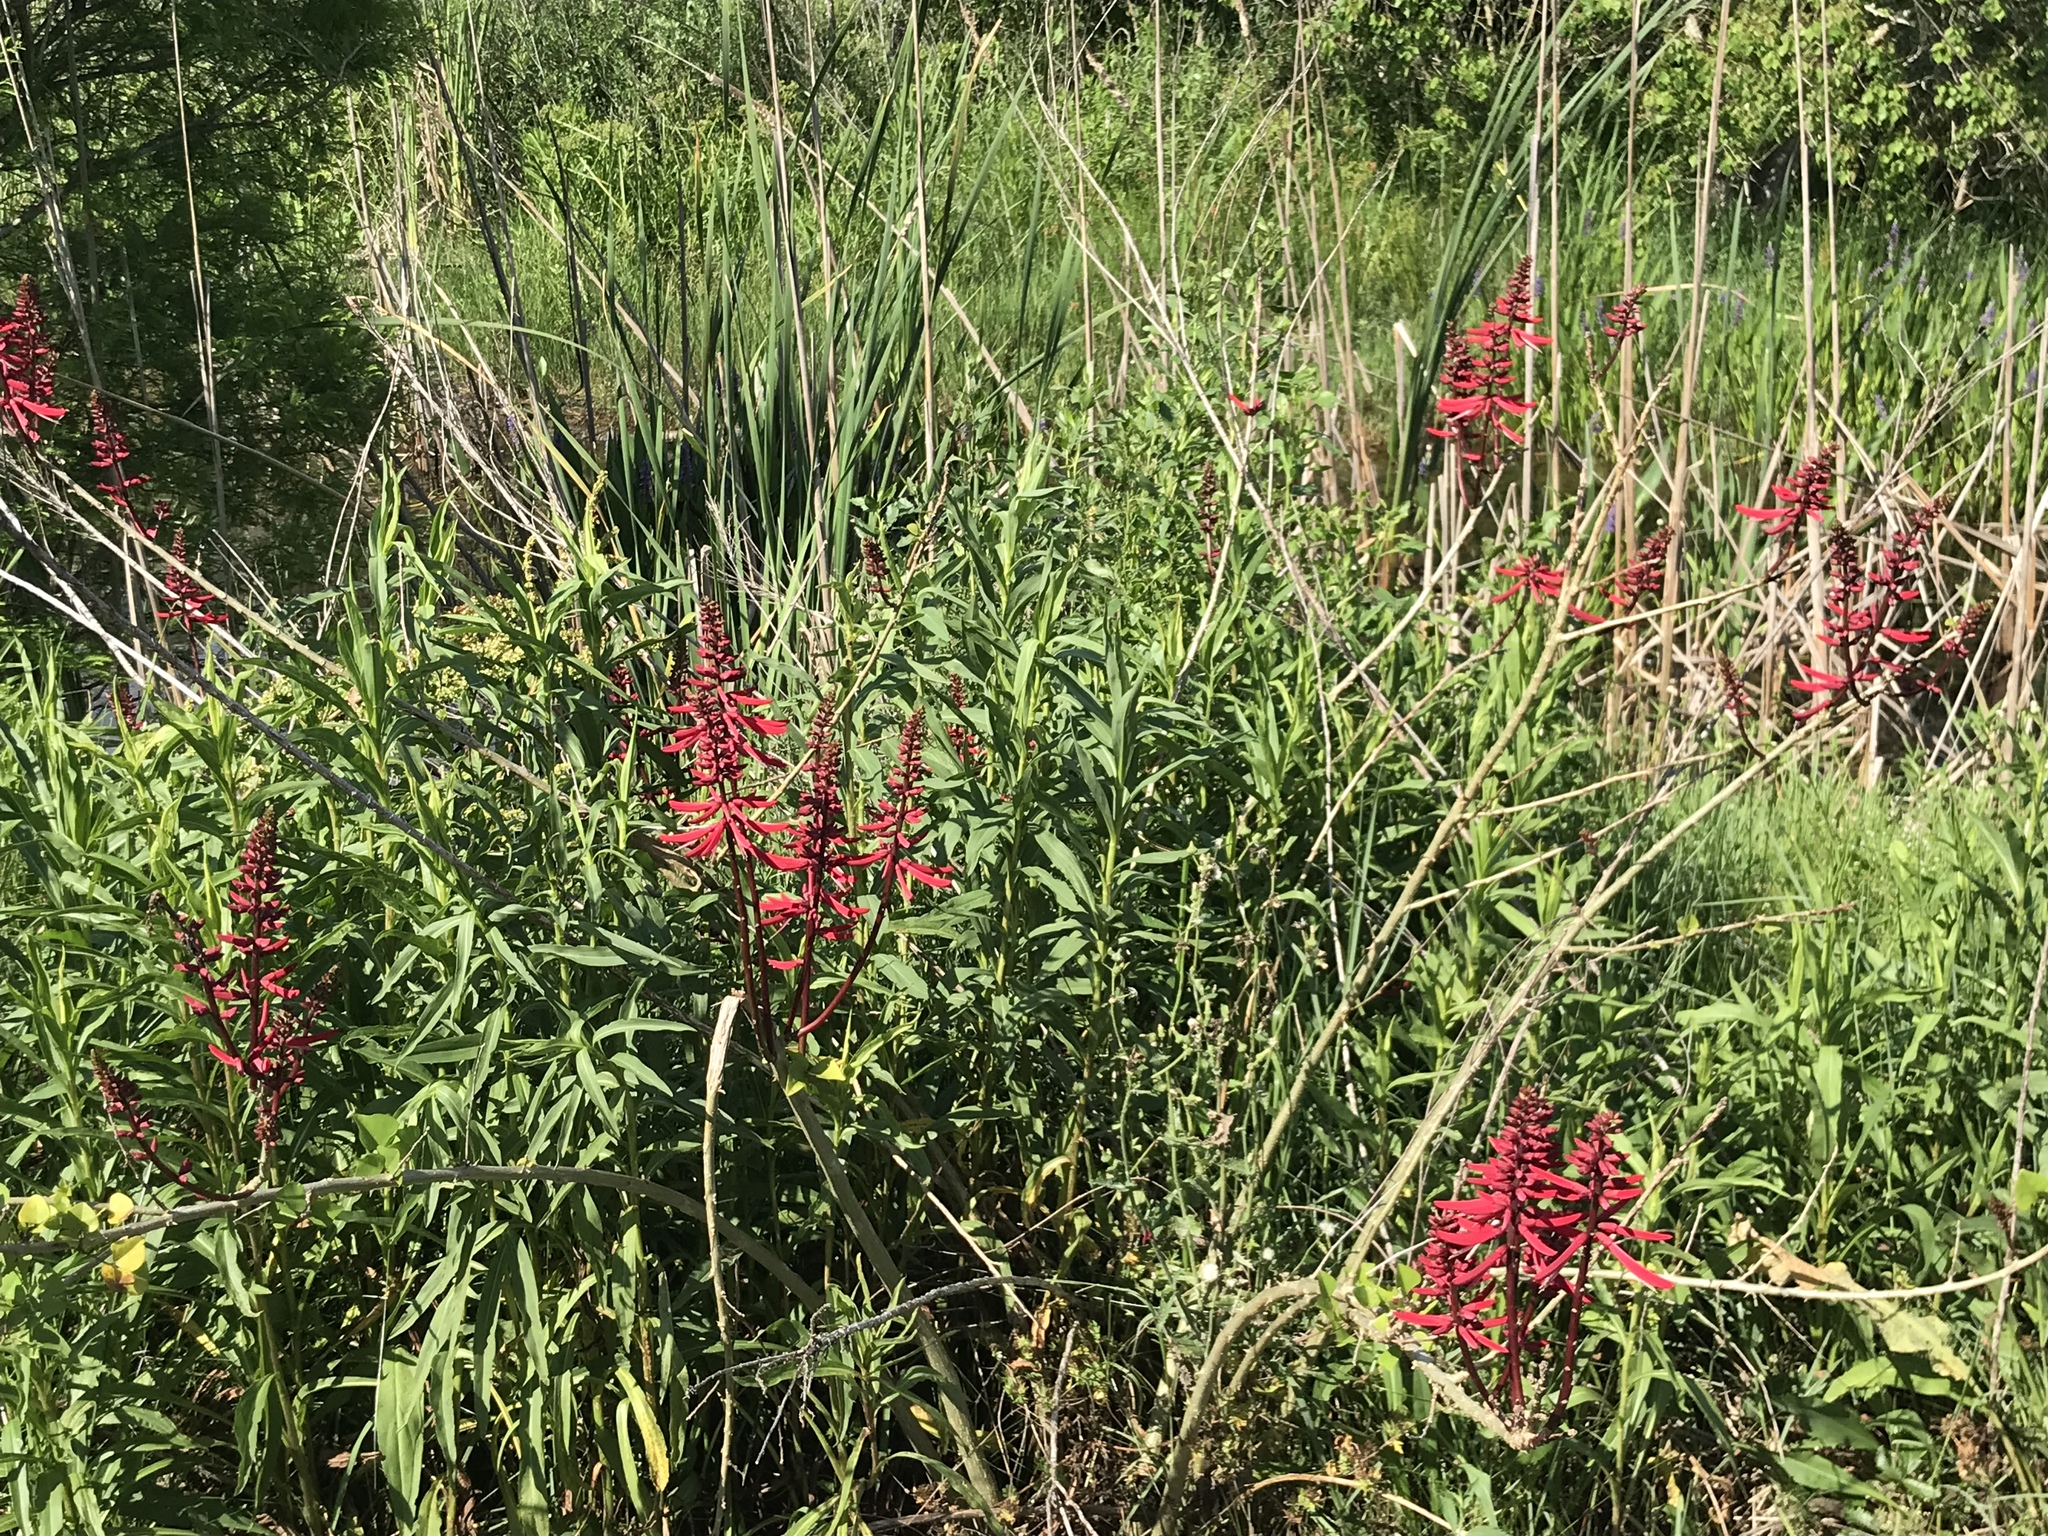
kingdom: Plantae
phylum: Tracheophyta
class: Magnoliopsida
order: Fabales
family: Fabaceae
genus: Erythrina
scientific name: Erythrina herbacea
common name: Coral-bean
